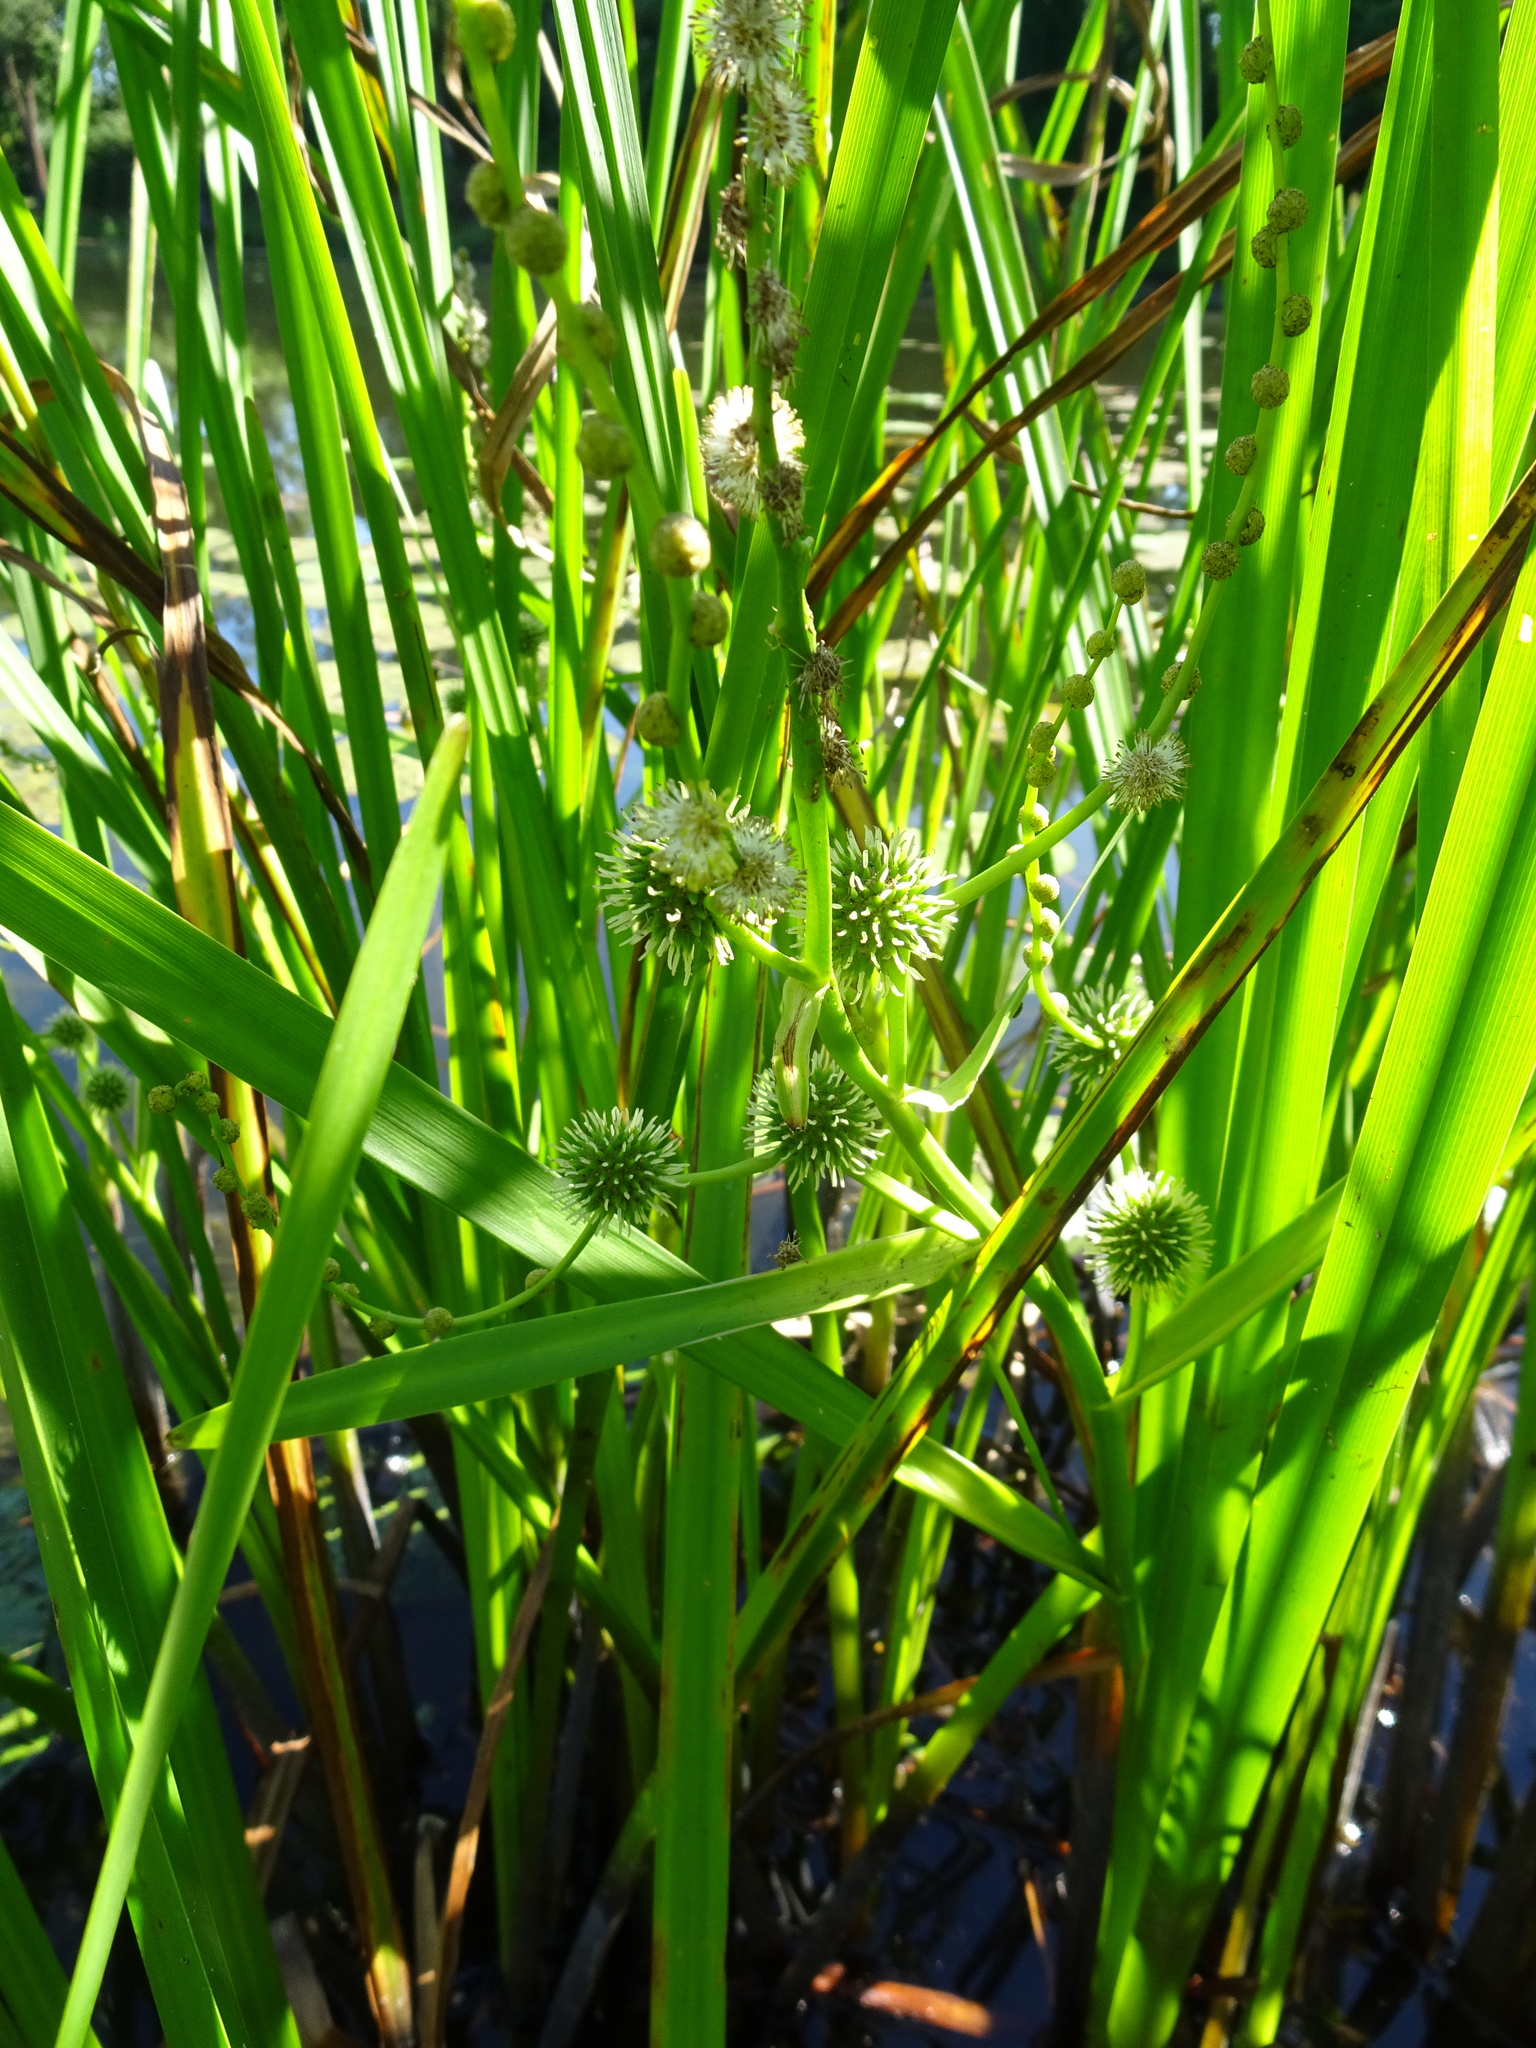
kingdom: Plantae
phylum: Tracheophyta
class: Liliopsida
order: Poales
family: Typhaceae
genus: Sparganium
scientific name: Sparganium erectum
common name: Branched bur-reed
